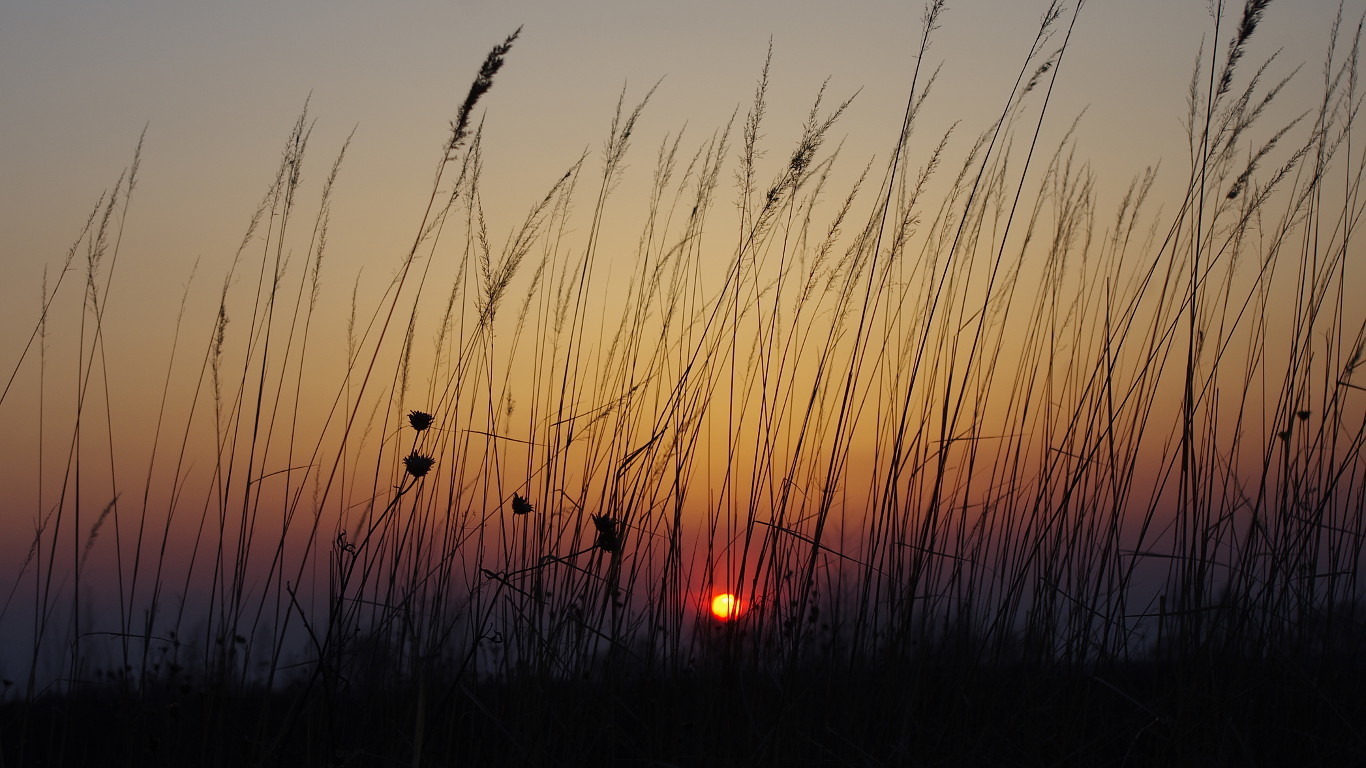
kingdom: Plantae
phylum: Tracheophyta
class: Liliopsida
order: Poales
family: Poaceae
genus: Calamagrostis
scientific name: Calamagrostis epigejos
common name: Wood small-reed
